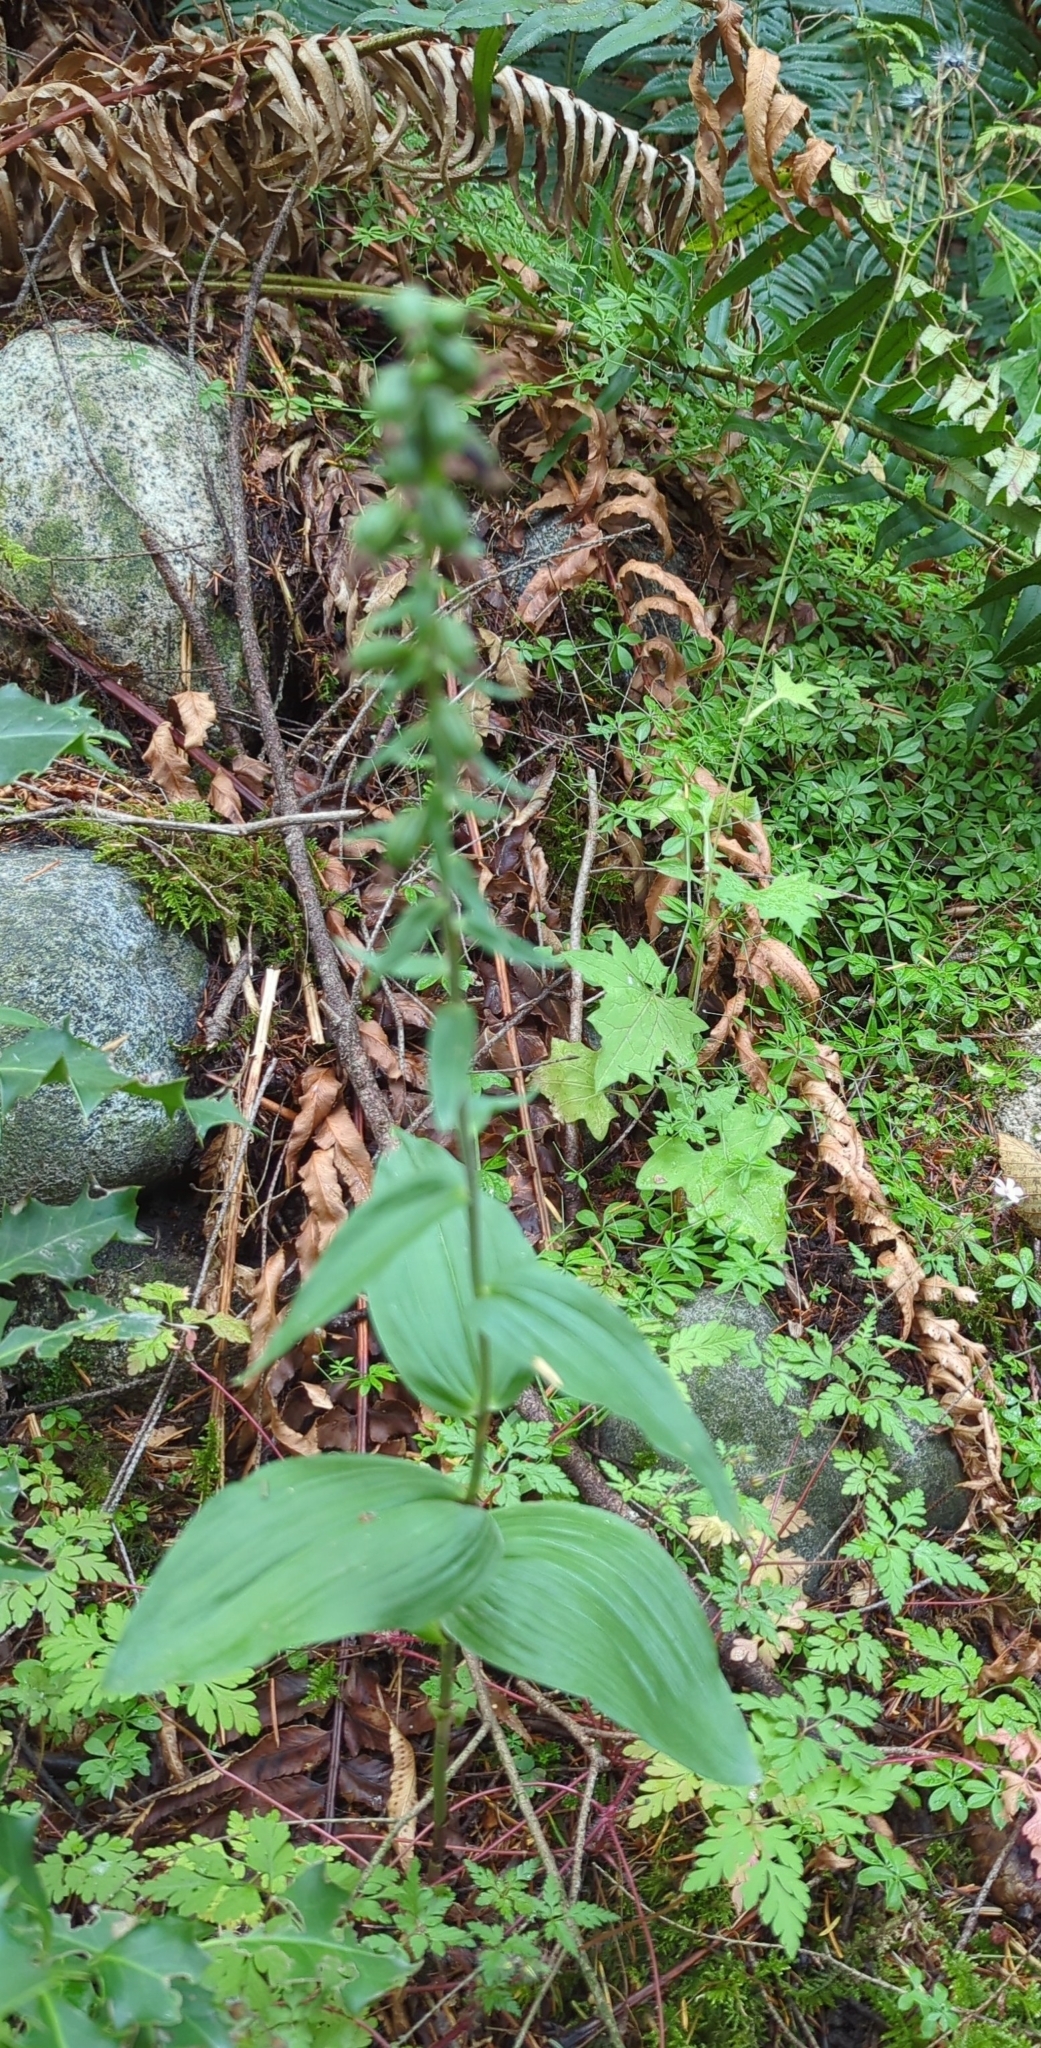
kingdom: Plantae
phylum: Tracheophyta
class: Liliopsida
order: Asparagales
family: Orchidaceae
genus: Epipactis
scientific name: Epipactis helleborine
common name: Broad-leaved helleborine
